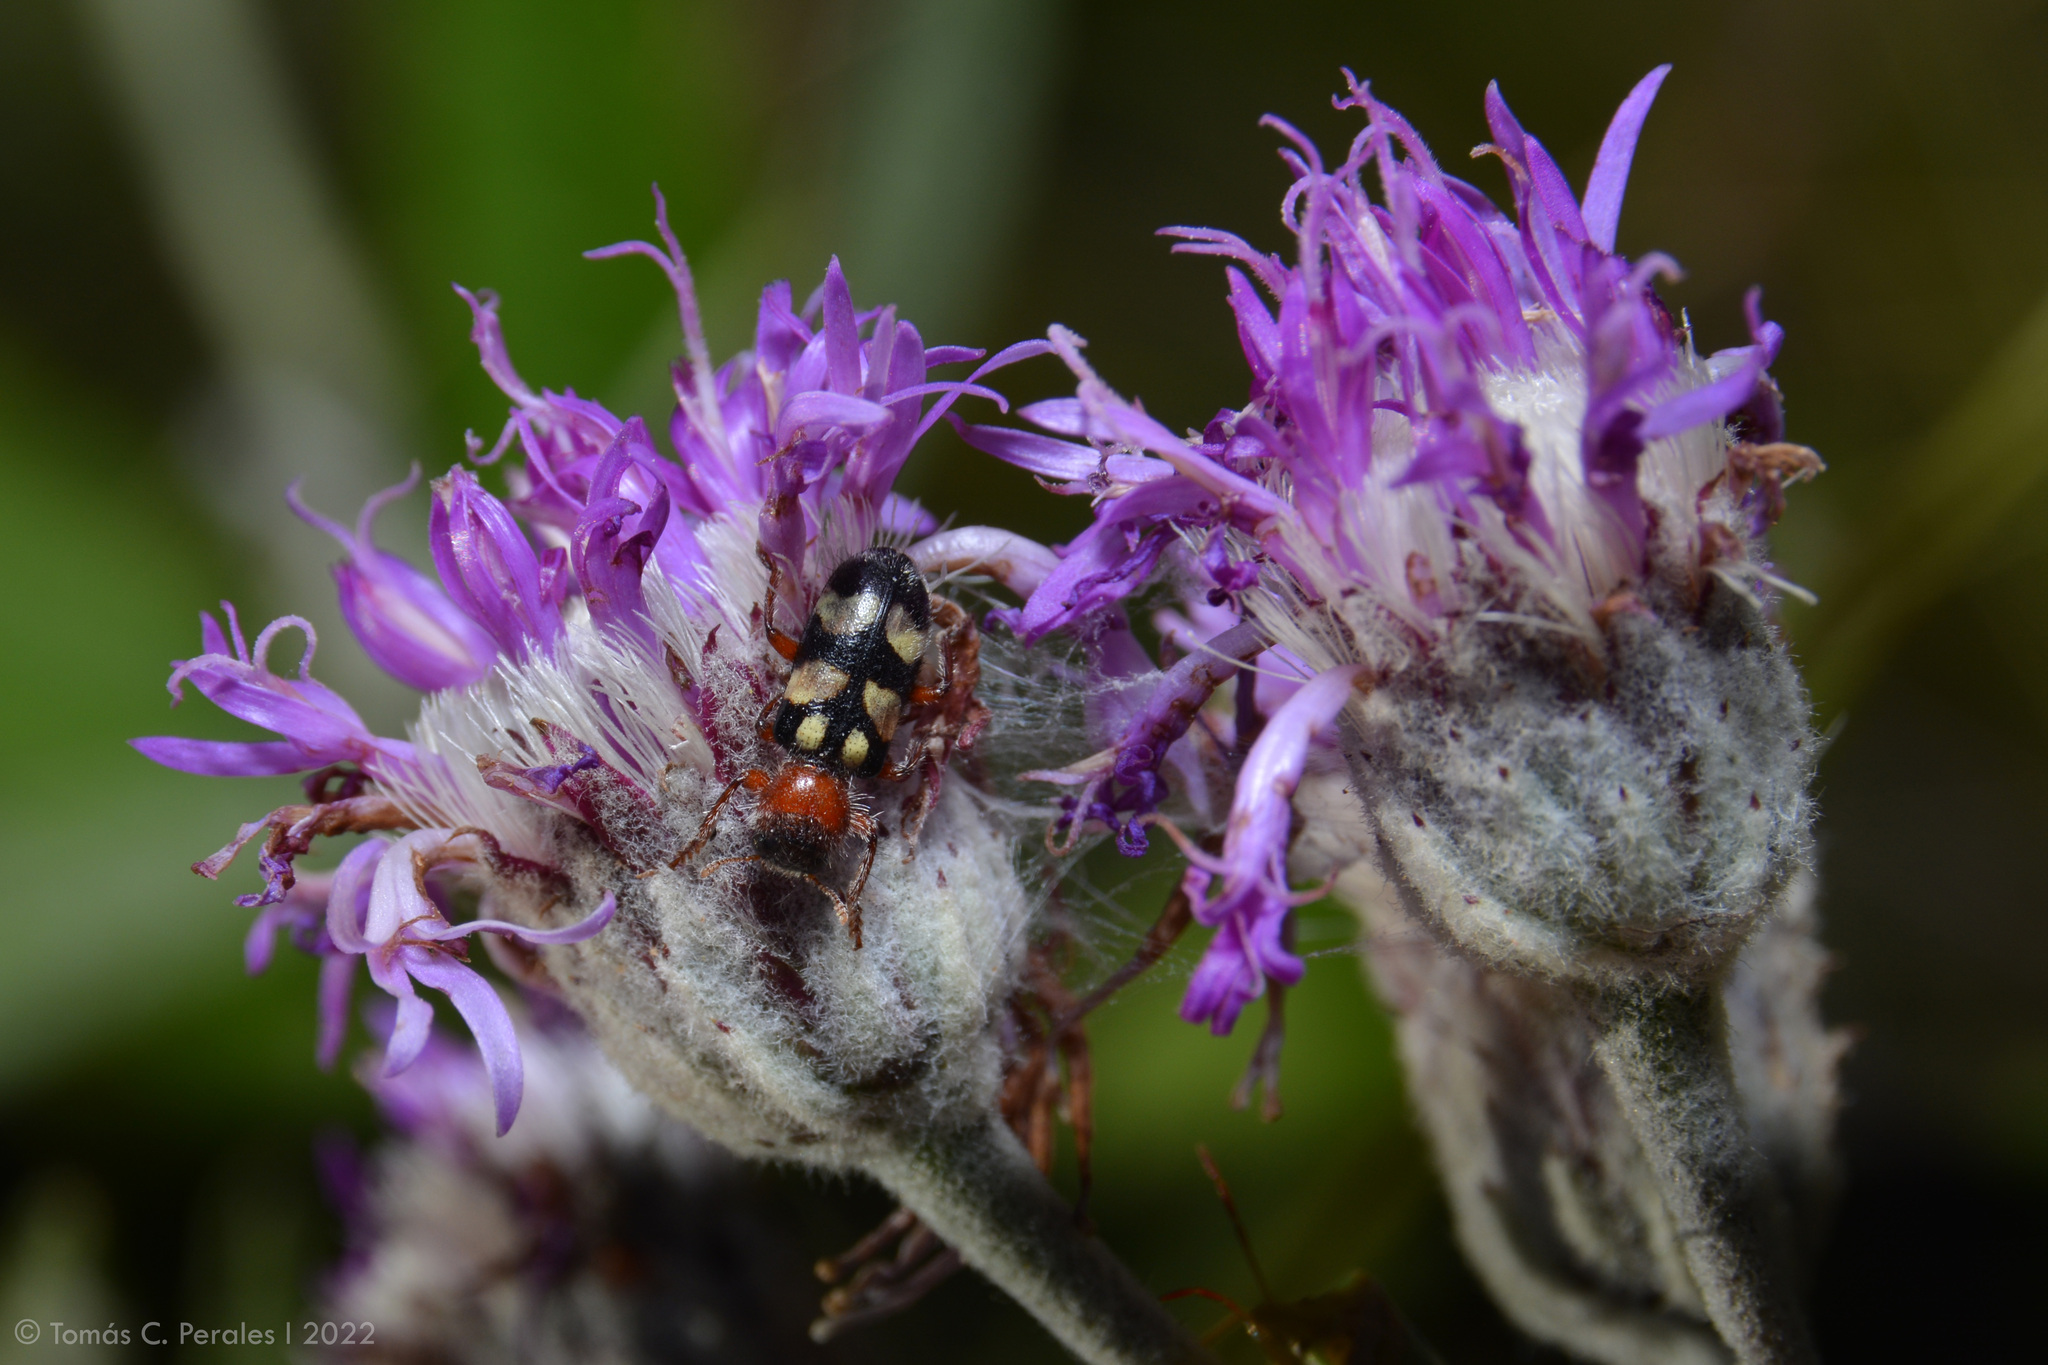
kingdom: Animalia
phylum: Arthropoda
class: Insecta
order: Coleoptera
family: Cleridae
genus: Enoclerus
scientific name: Enoclerus
